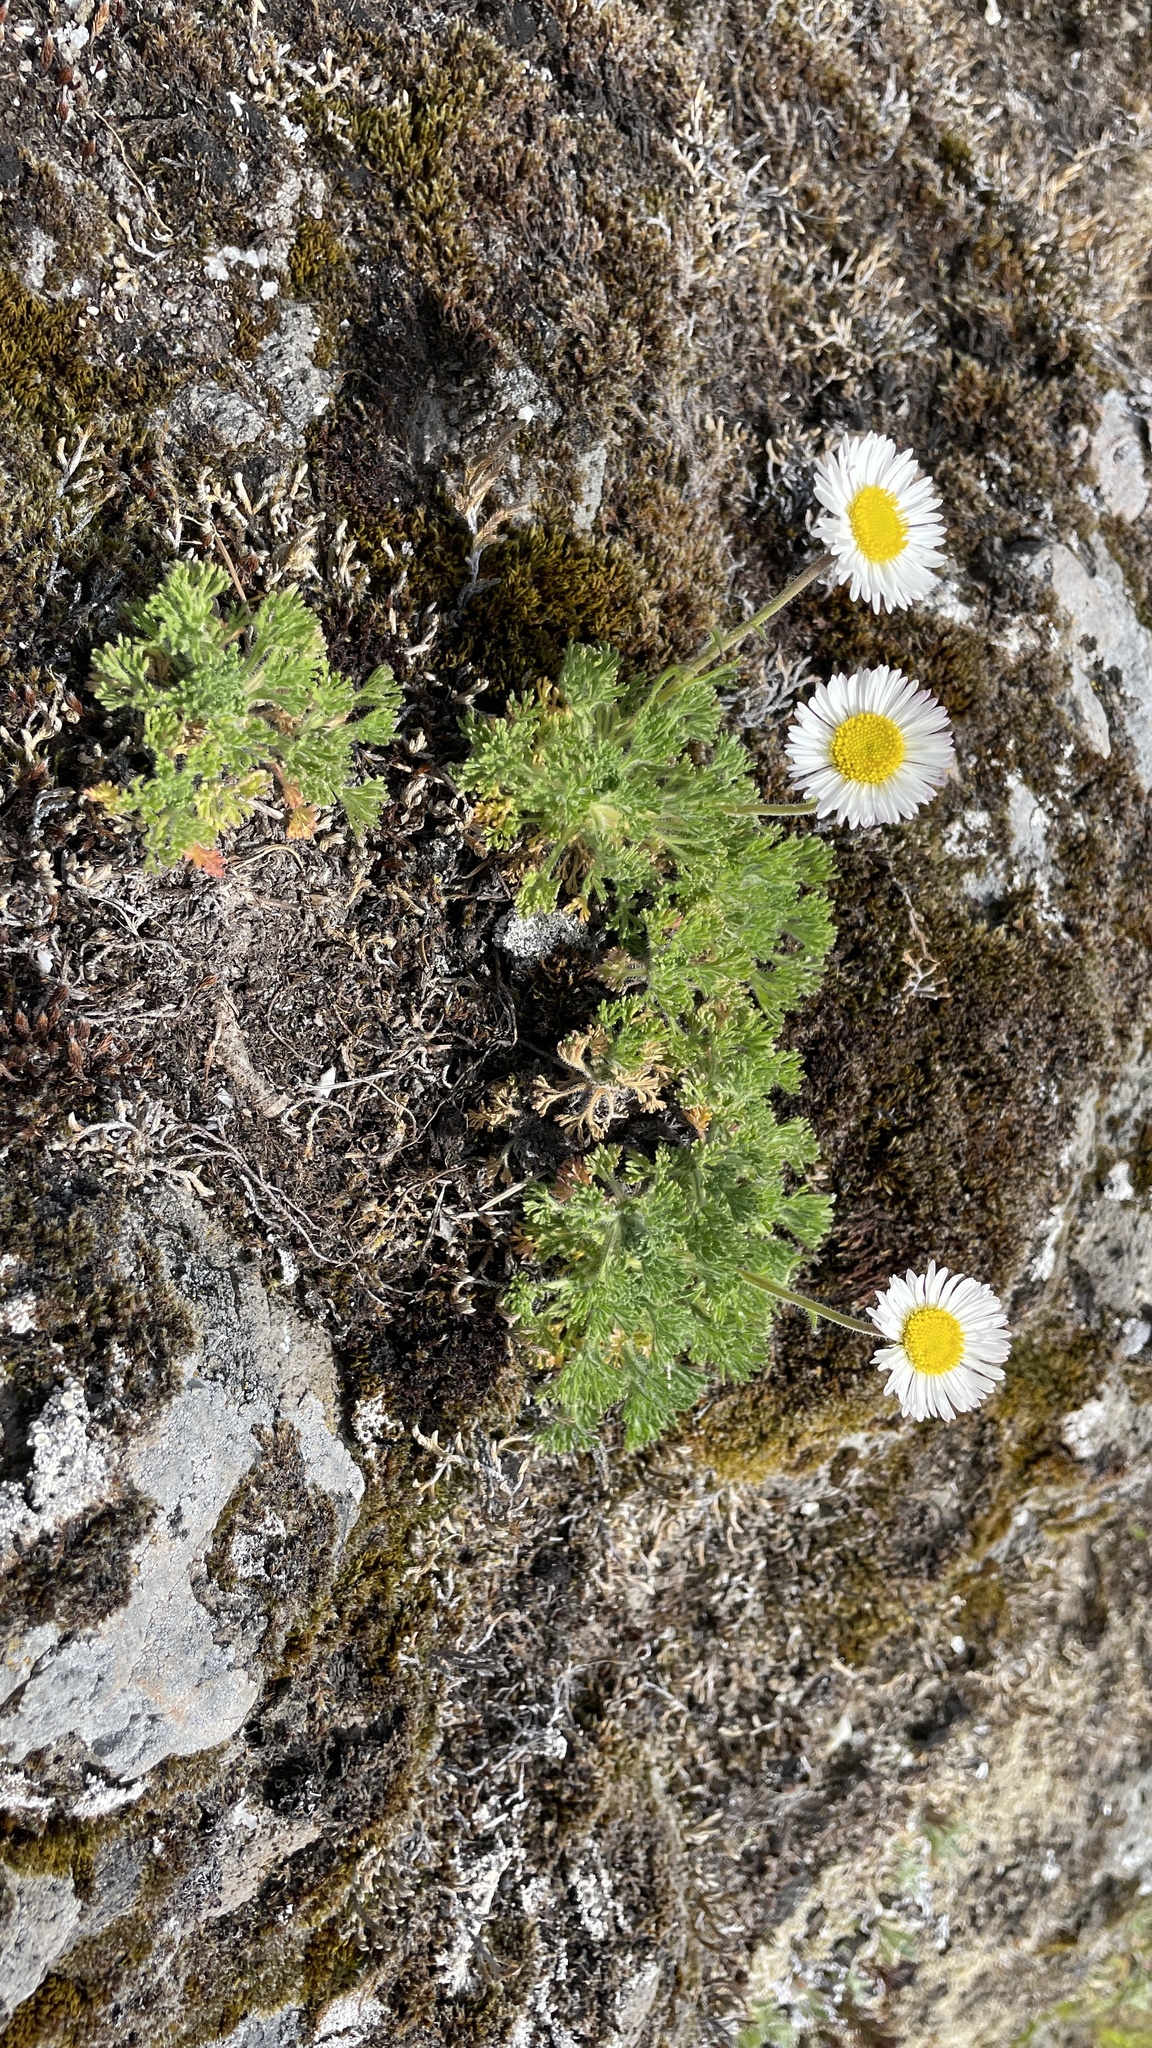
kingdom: Plantae
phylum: Tracheophyta
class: Magnoliopsida
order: Asterales
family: Asteraceae
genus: Erigeron
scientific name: Erigeron compositus
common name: Dwarf mountain fleabane
